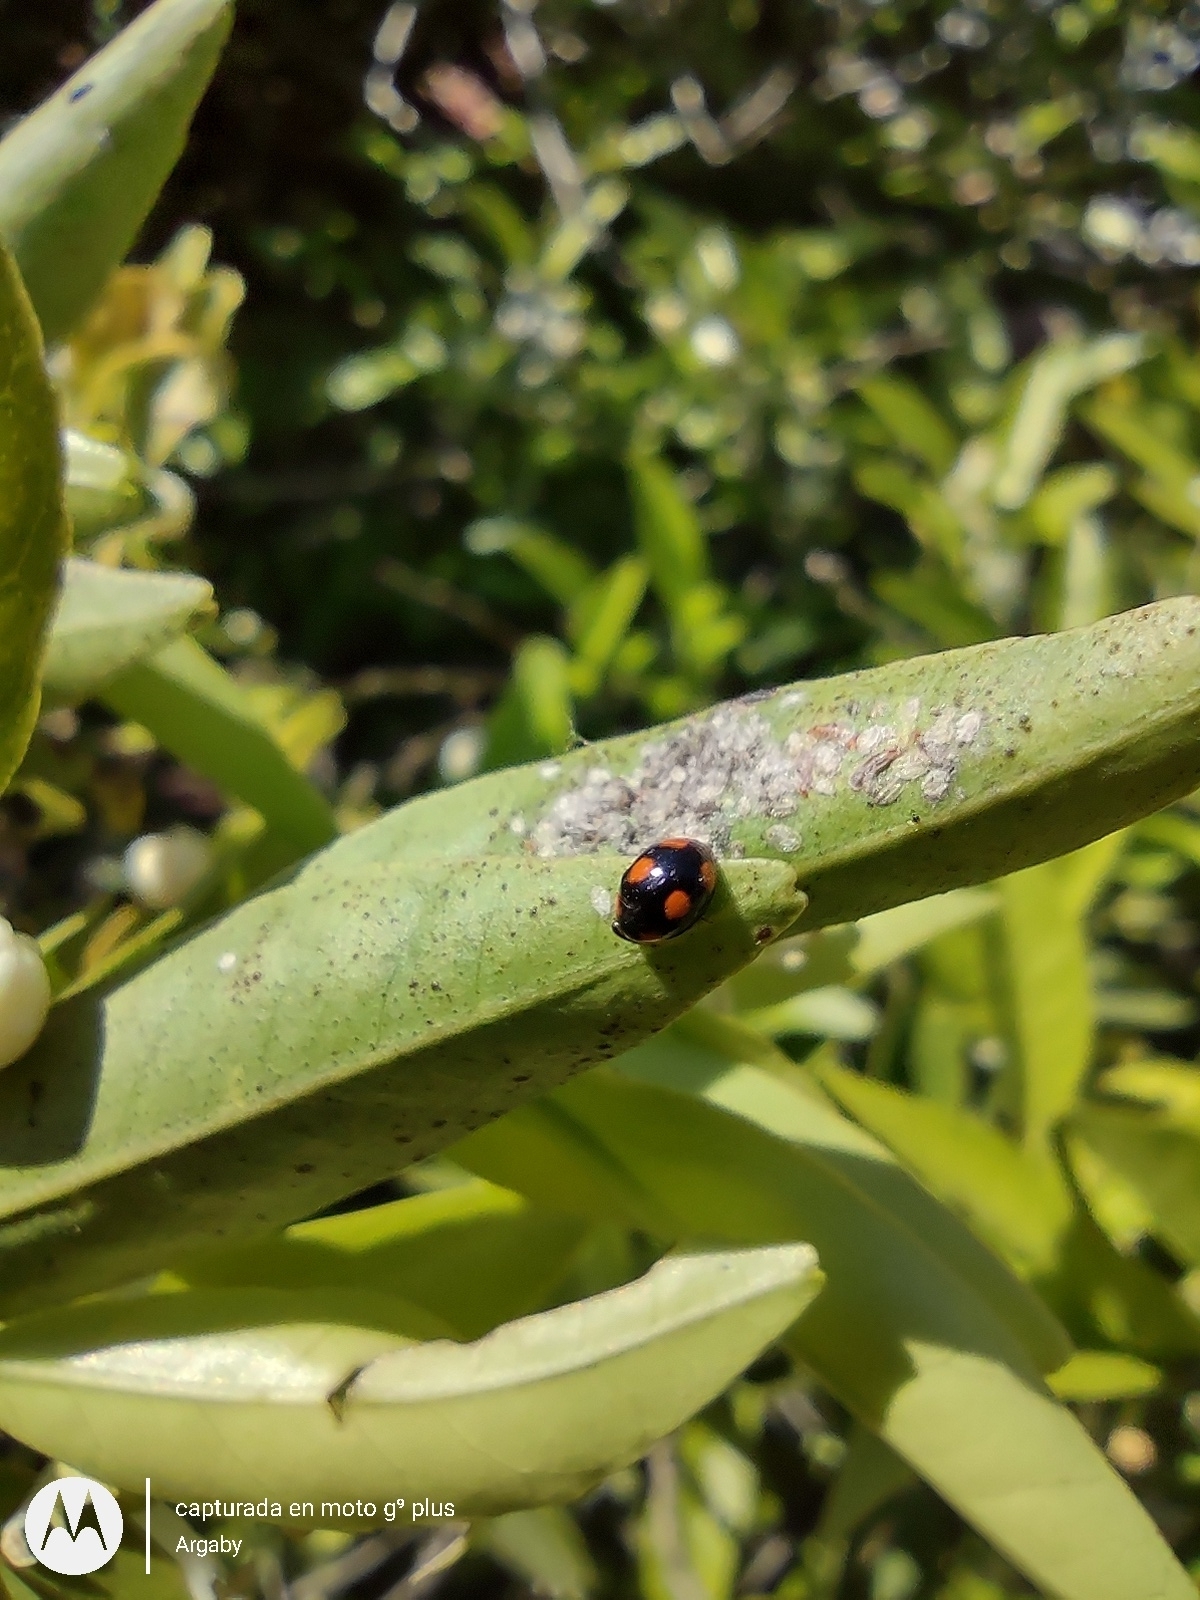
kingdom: Animalia
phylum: Arthropoda
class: Insecta
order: Coleoptera
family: Coccinellidae
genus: Tenuisvalvae
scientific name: Tenuisvalvae
